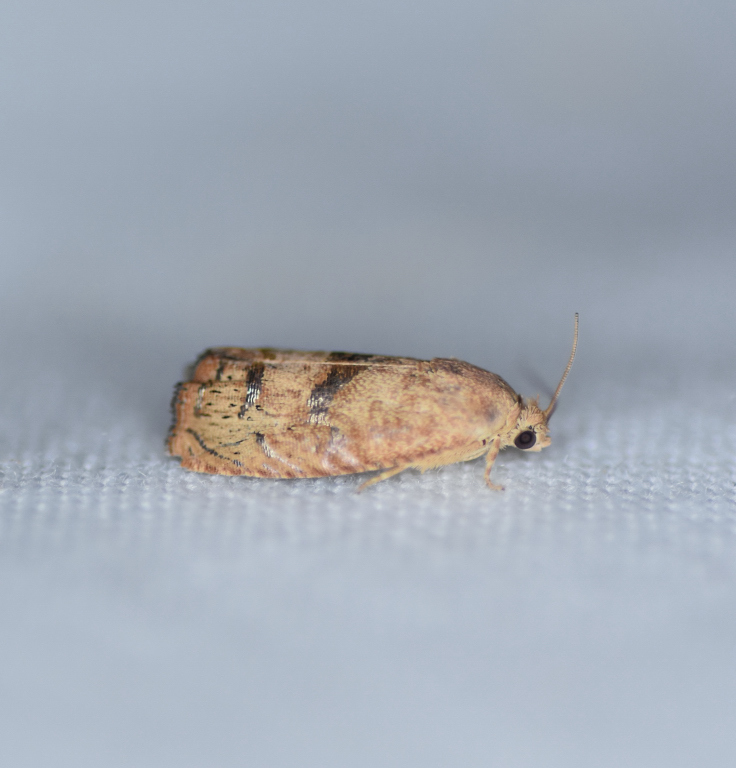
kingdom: Animalia
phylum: Arthropoda
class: Insecta
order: Lepidoptera
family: Tortricidae
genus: Cydia
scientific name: Cydia latiferreana
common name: Filbertworm moth
